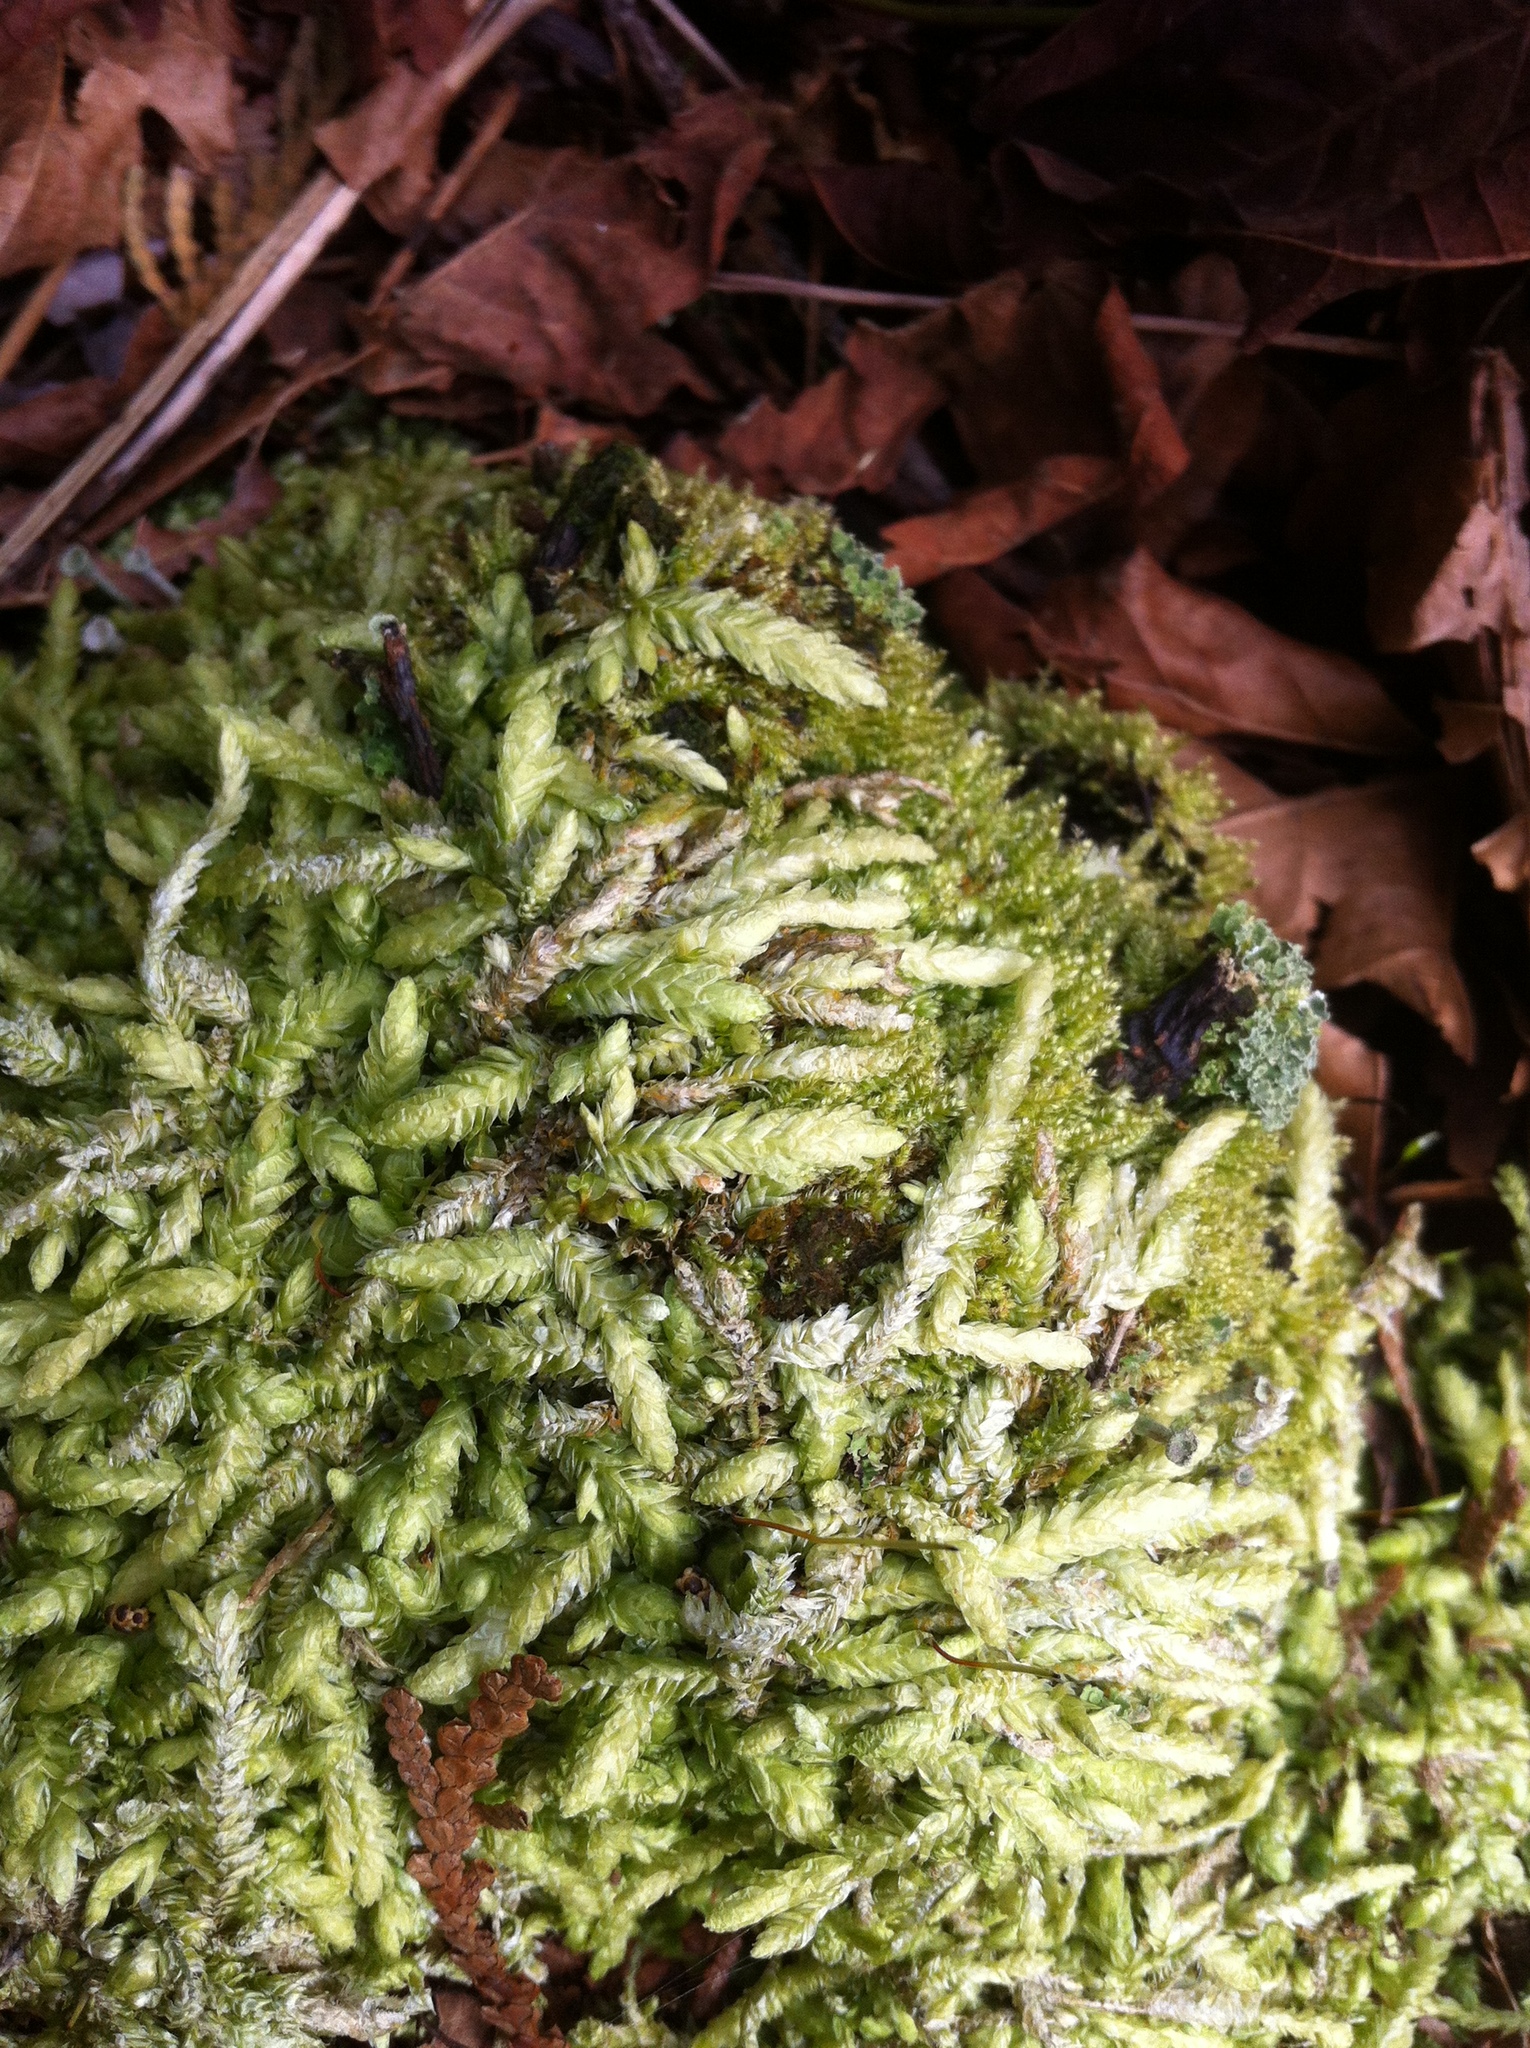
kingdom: Plantae
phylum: Bryophyta
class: Bryopsida
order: Hypnales
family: Plagiotheciaceae
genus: Plagiothecium
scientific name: Plagiothecium undulatum
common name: Waved silk-moss
